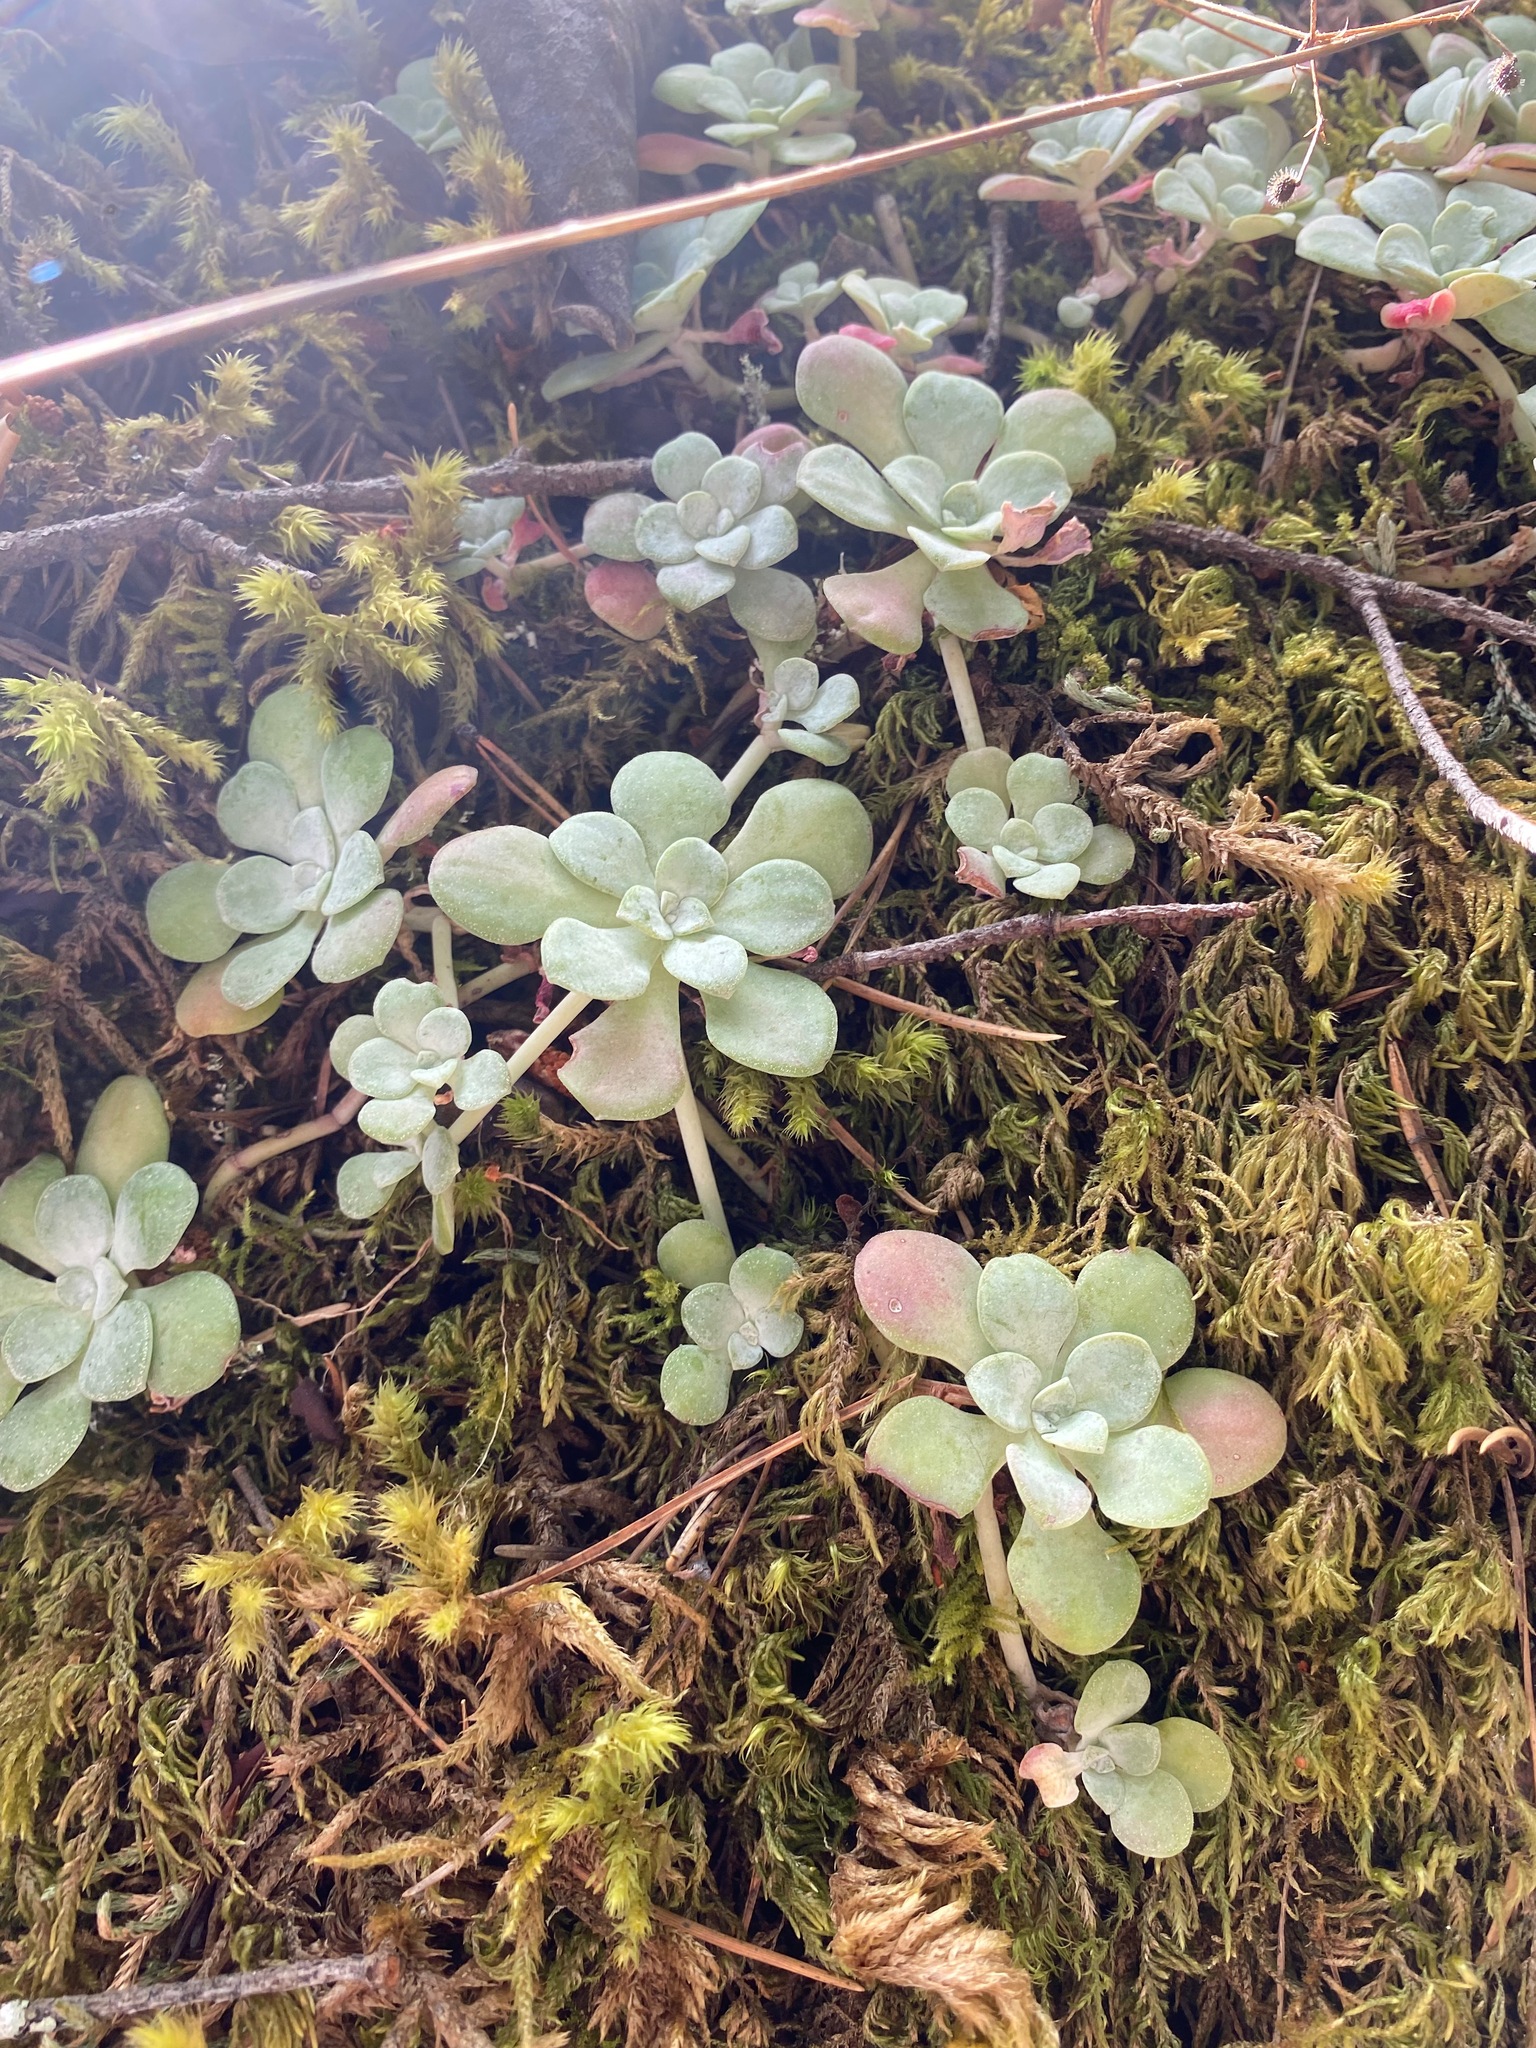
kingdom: Plantae
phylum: Tracheophyta
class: Magnoliopsida
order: Saxifragales
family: Crassulaceae
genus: Sedum
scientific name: Sedum spathulifolium
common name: Colorado stonecrop
